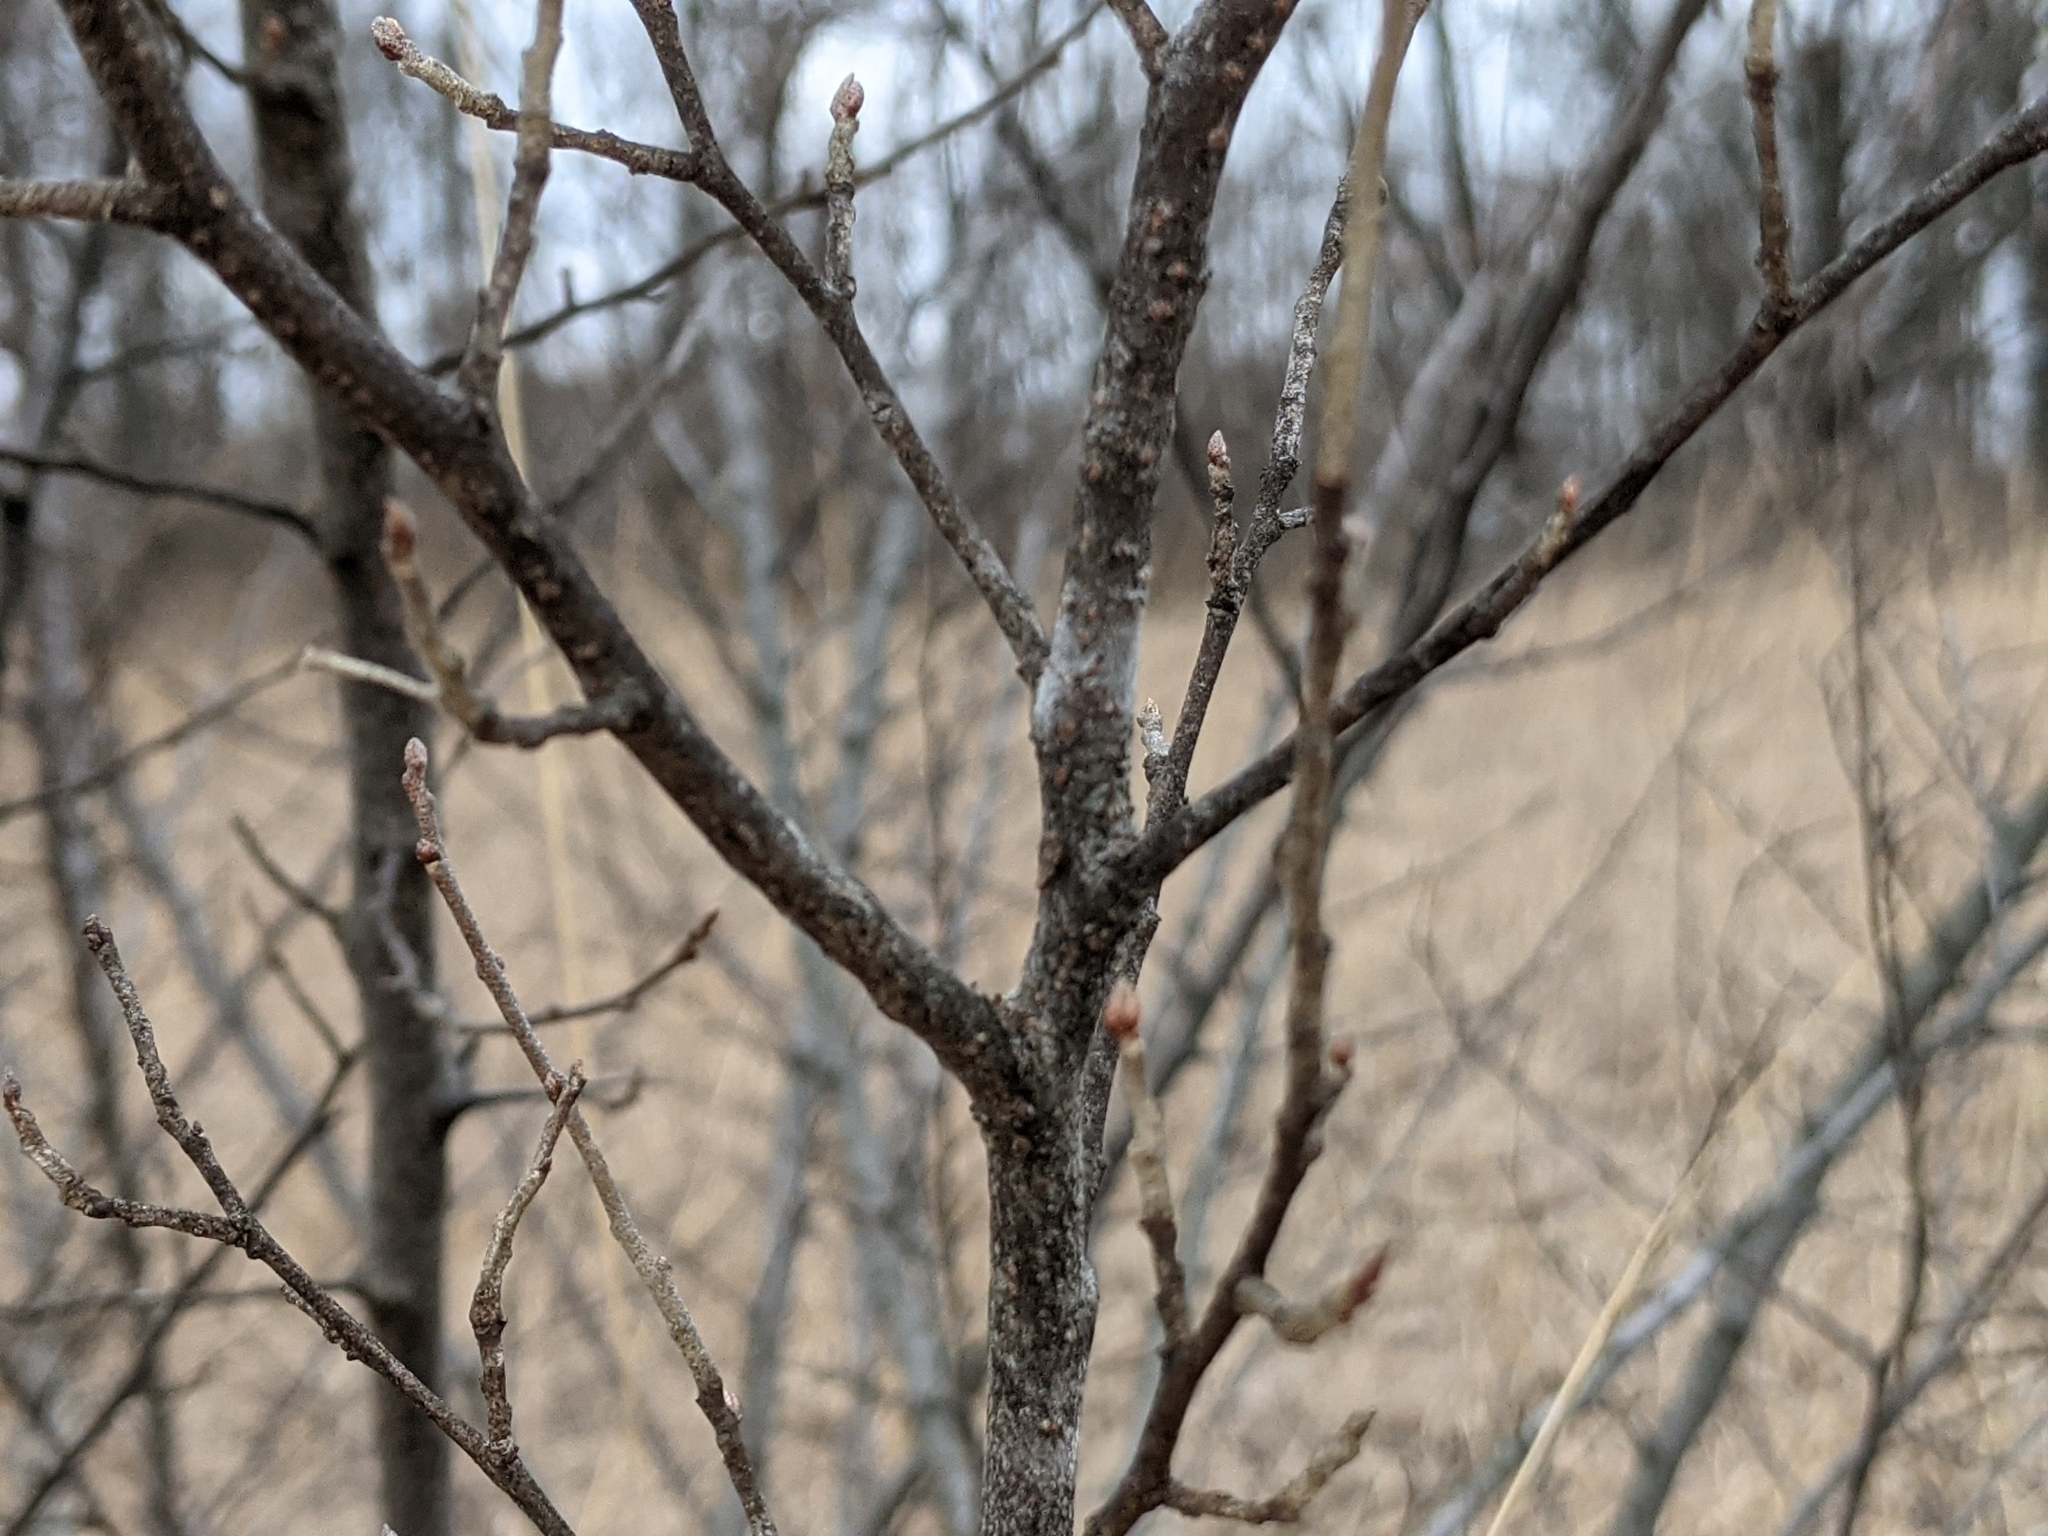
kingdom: Plantae
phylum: Tracheophyta
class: Magnoliopsida
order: Rosales
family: Elaeagnaceae
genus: Elaeagnus
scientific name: Elaeagnus umbellata
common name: Autumn olive
